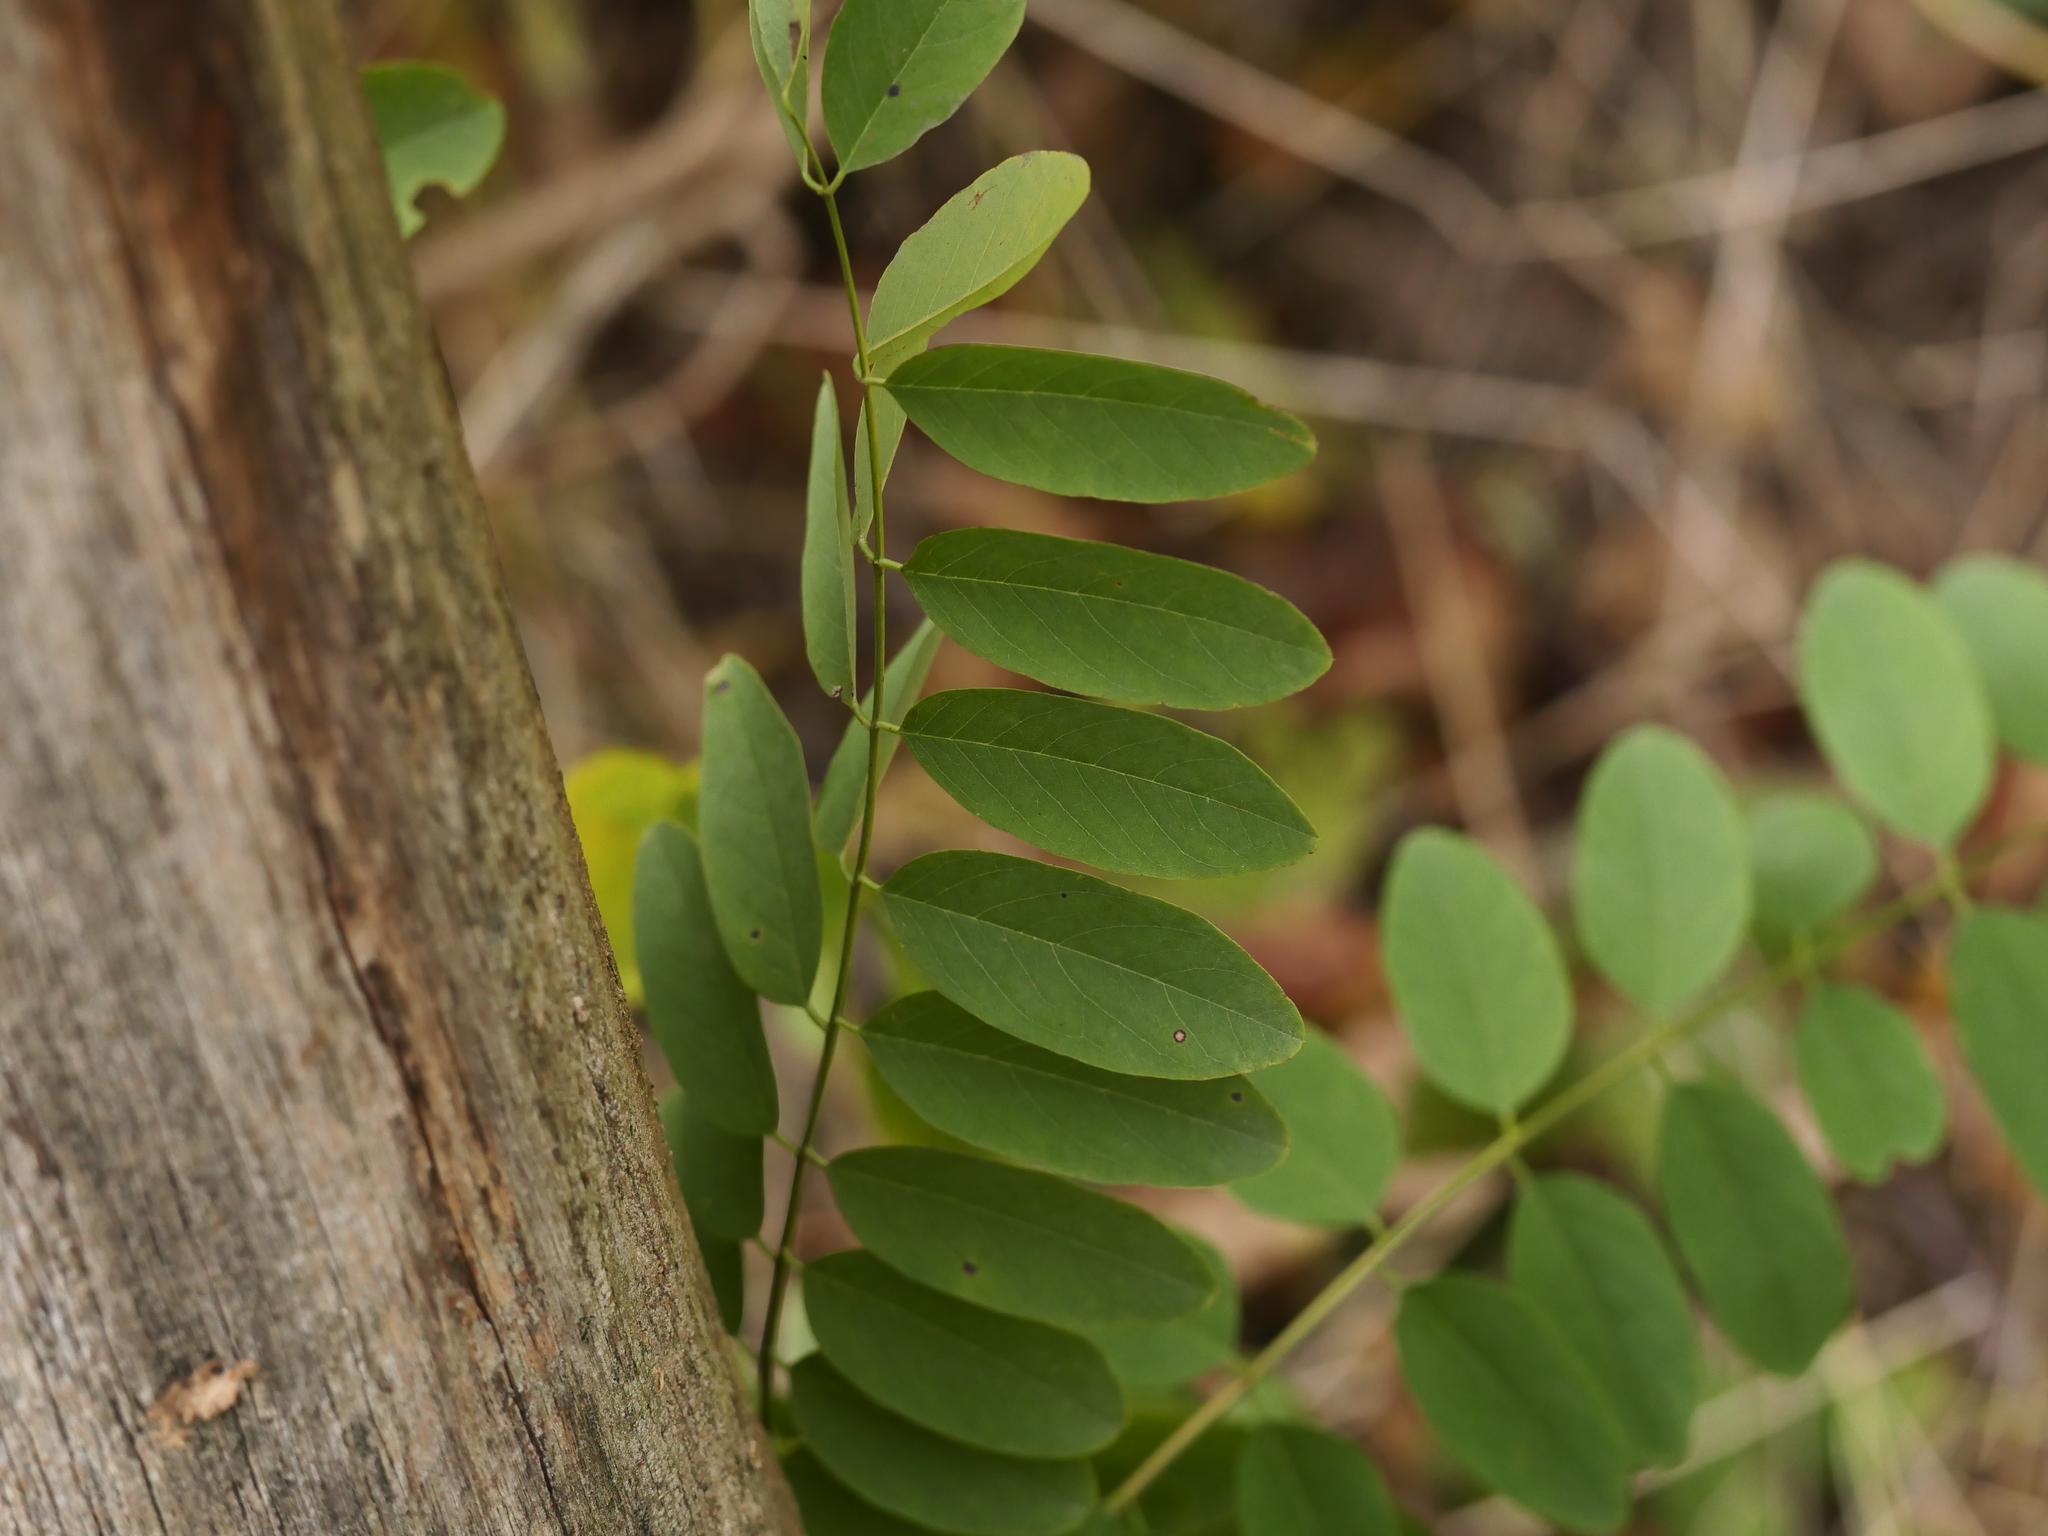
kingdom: Plantae
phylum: Tracheophyta
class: Magnoliopsida
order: Fabales
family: Fabaceae
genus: Robinia
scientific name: Robinia pseudoacacia
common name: Black locust
